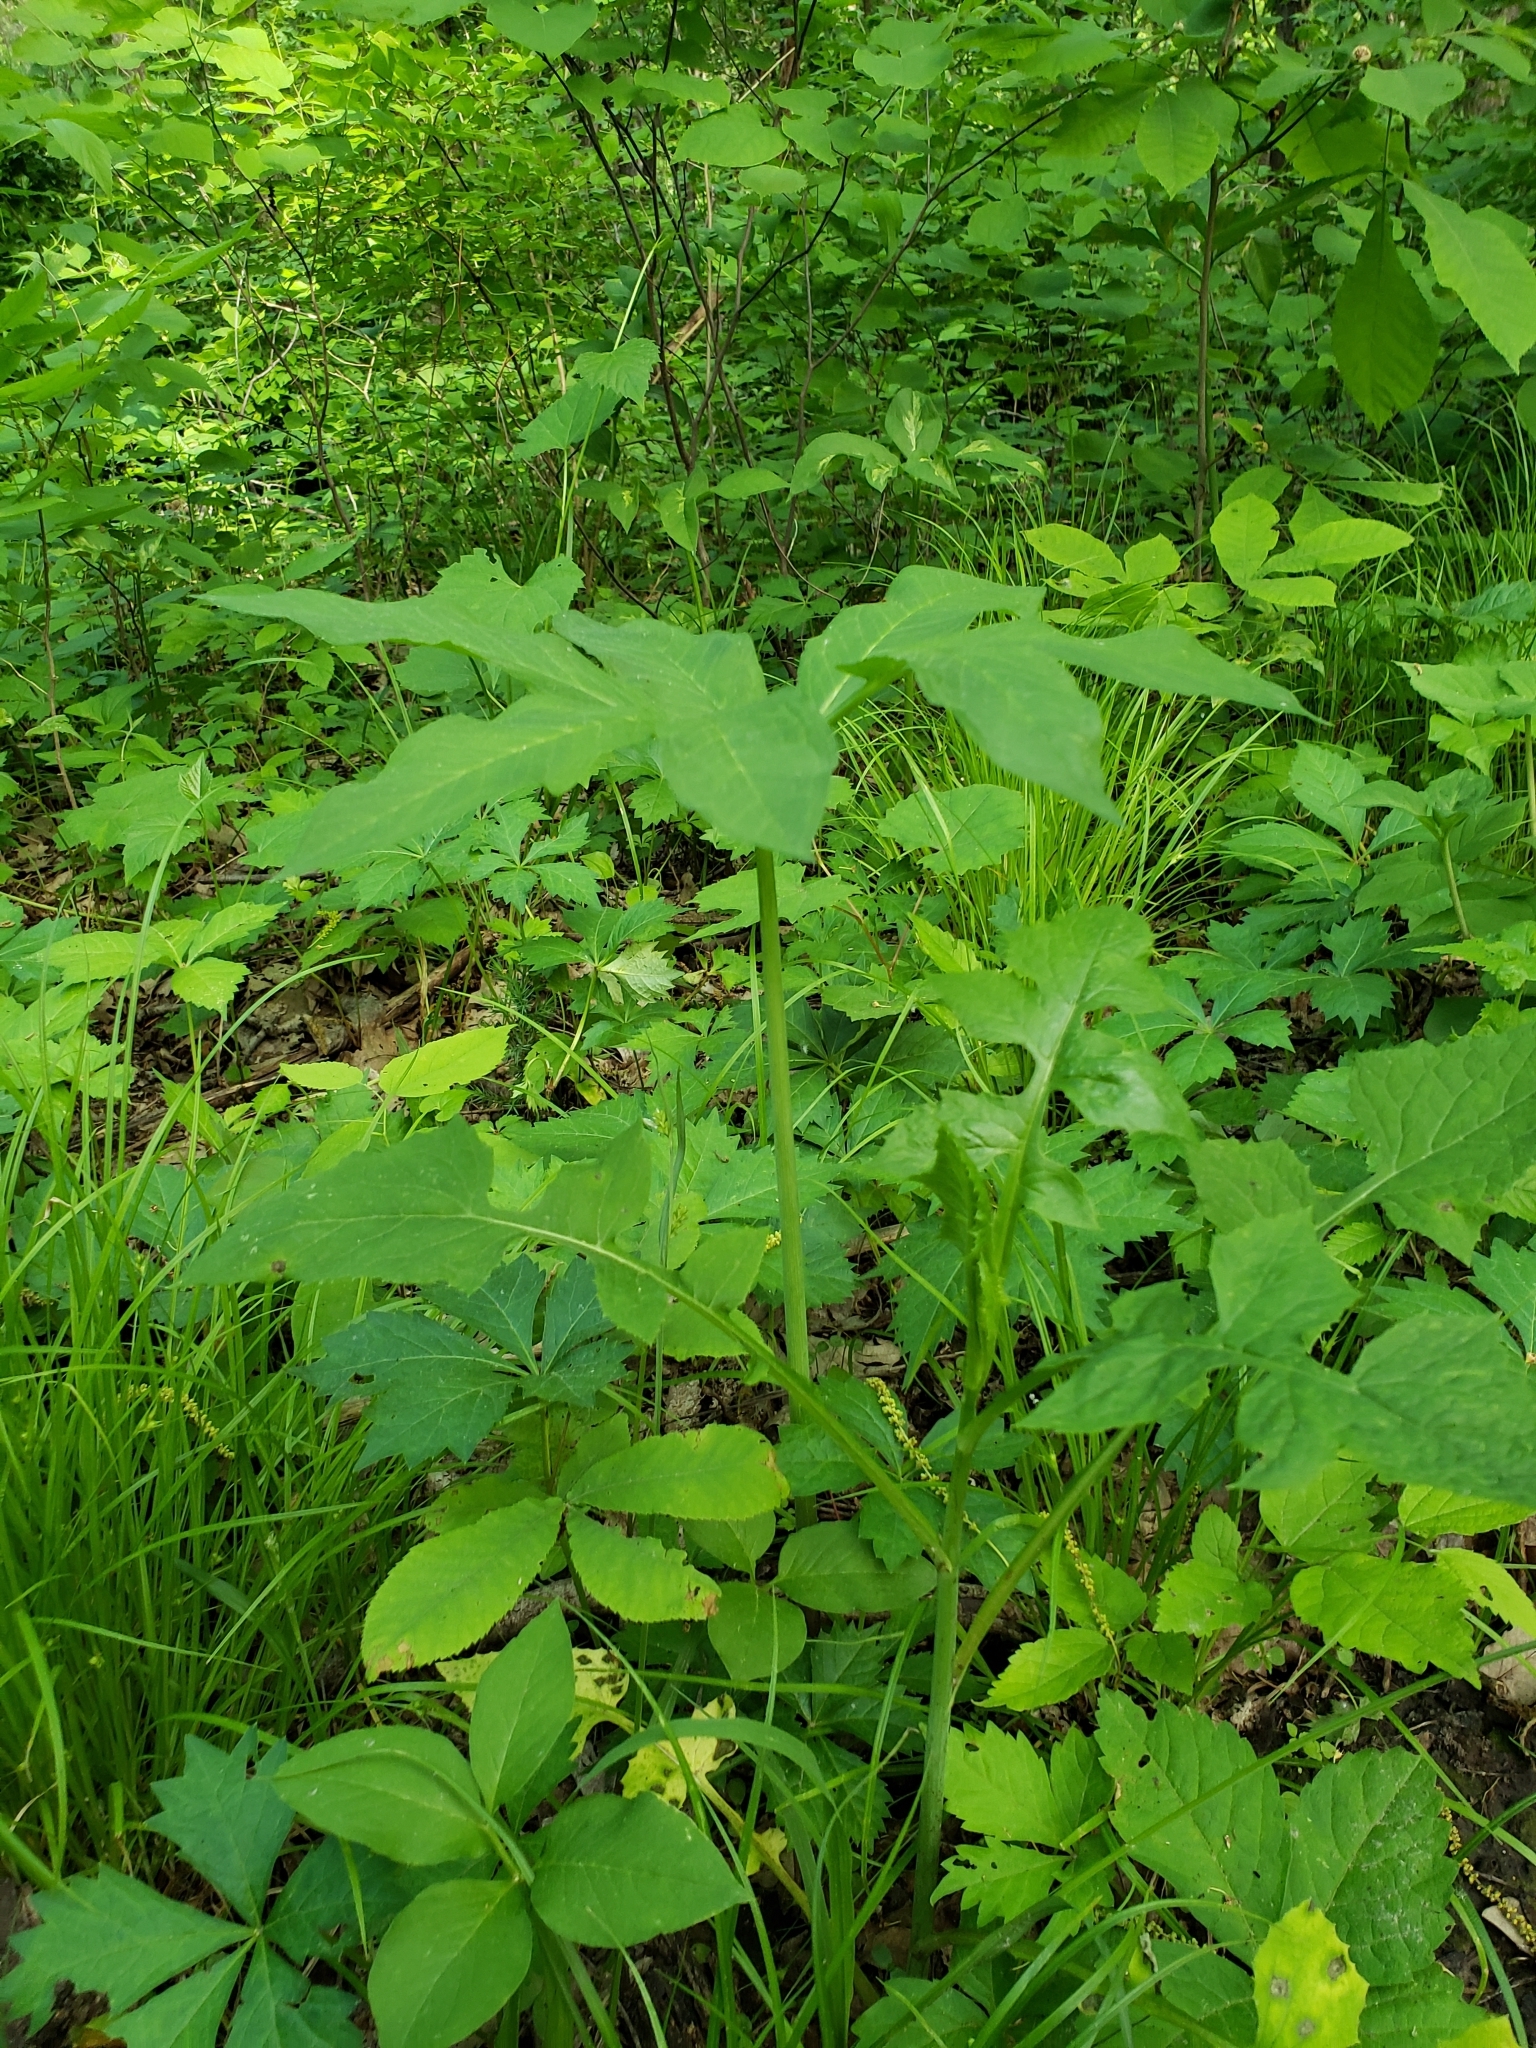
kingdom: Plantae
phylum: Tracheophyta
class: Liliopsida
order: Alismatales
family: Araceae
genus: Arisaema
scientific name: Arisaema dracontium
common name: Dragon-arum
